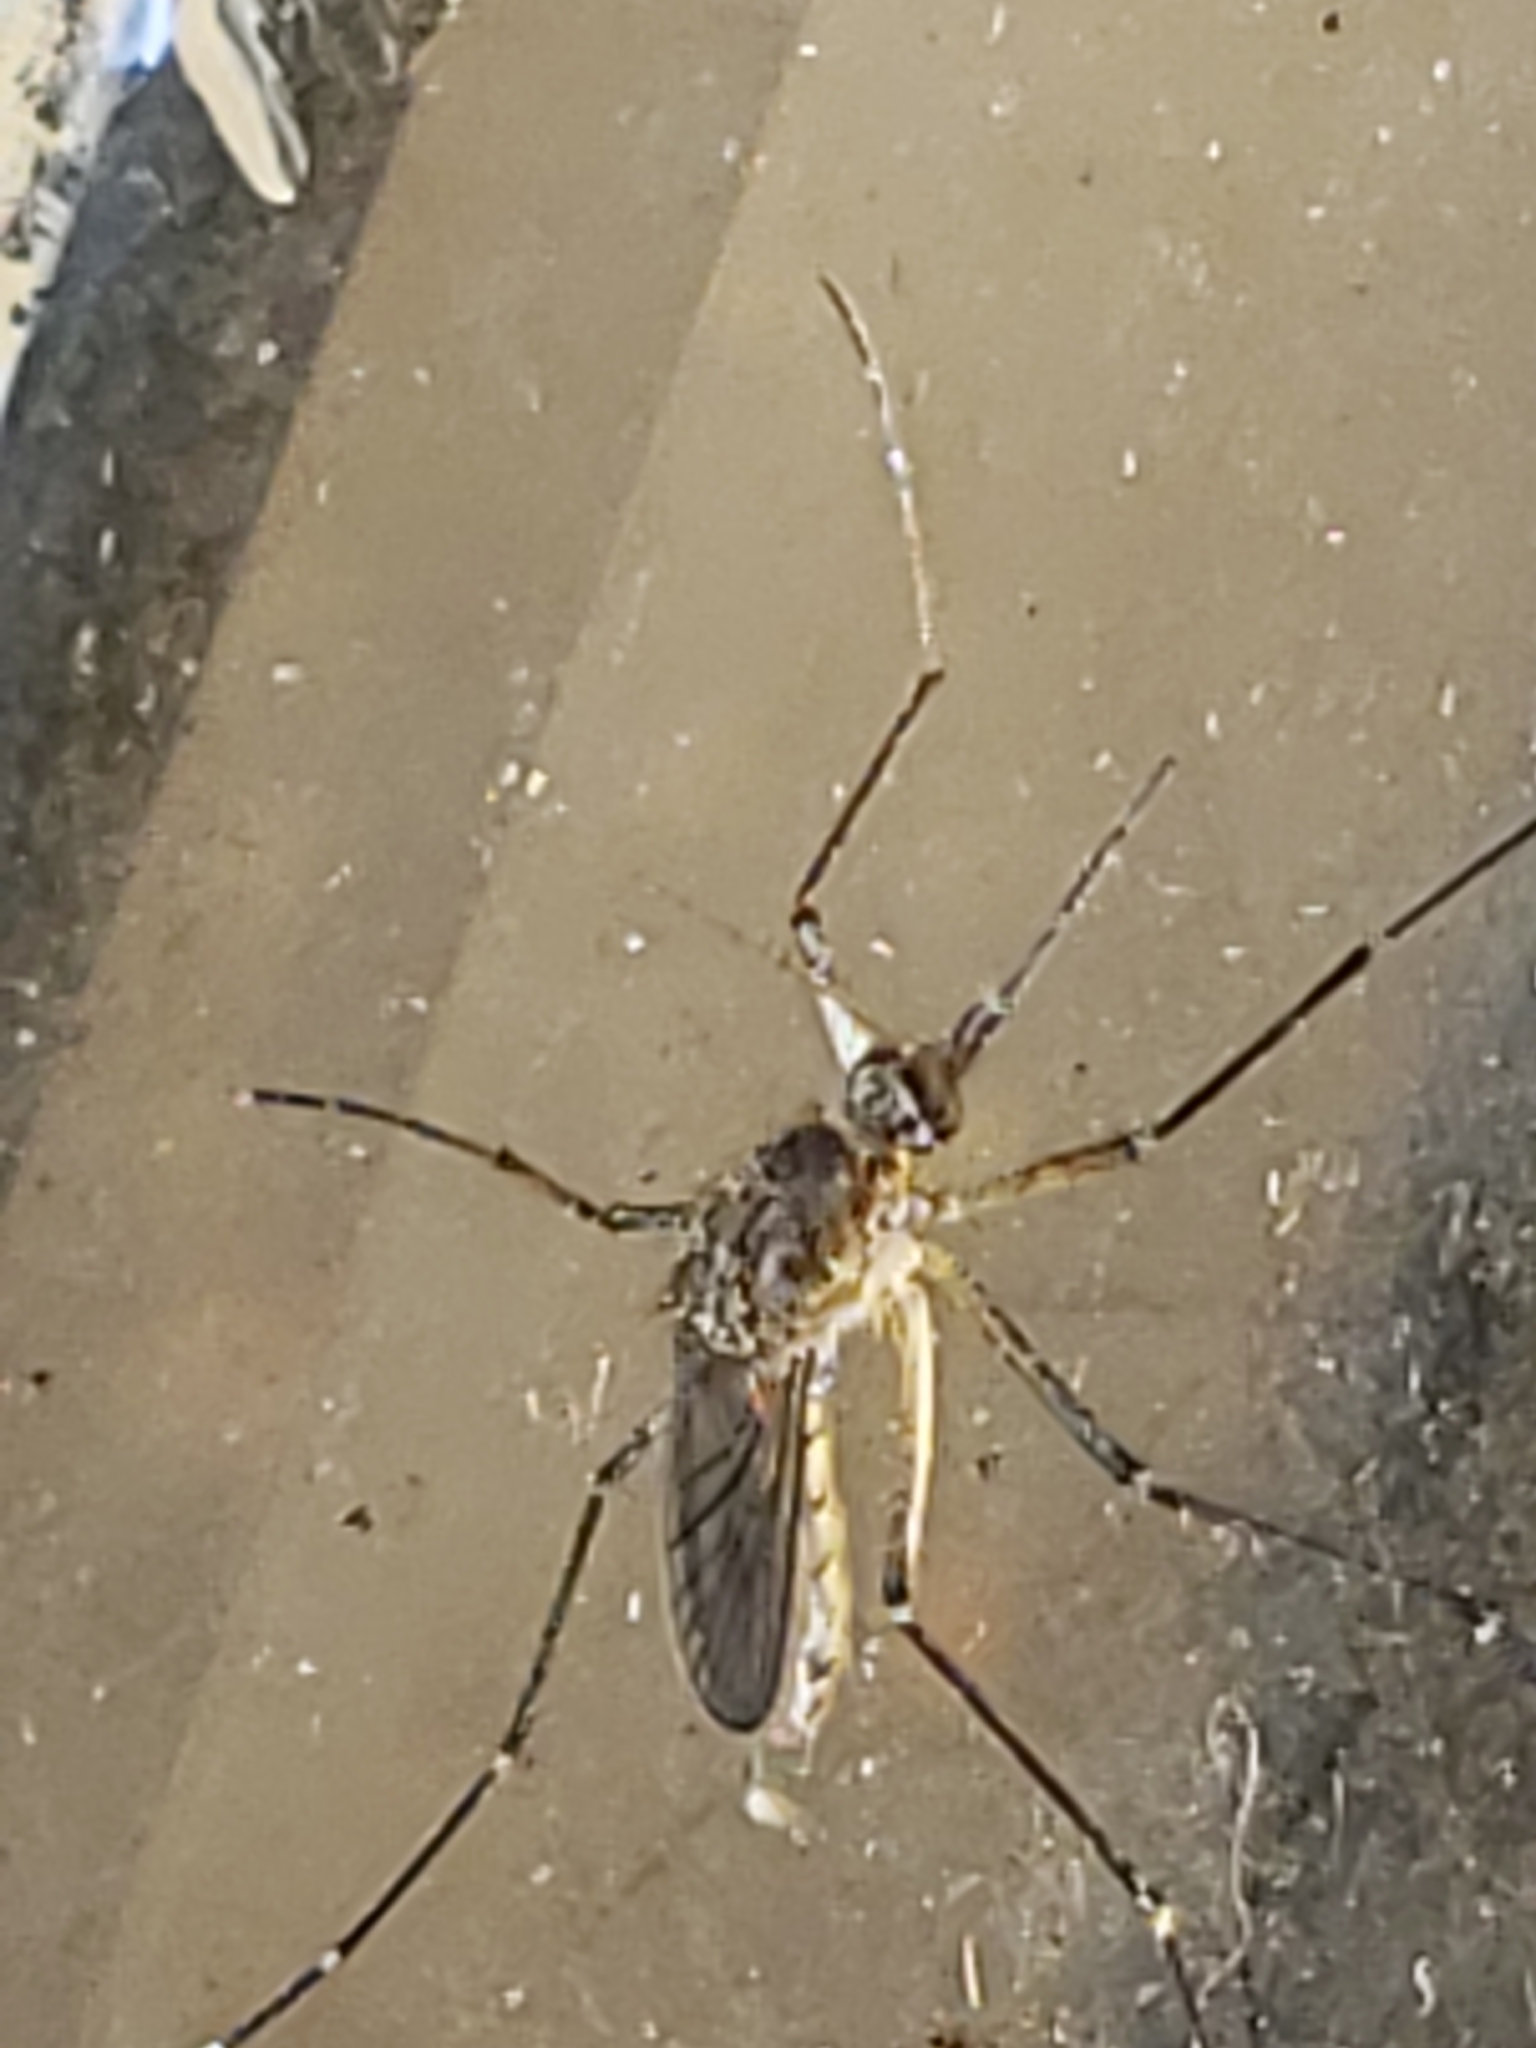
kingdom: Animalia
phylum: Arthropoda
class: Insecta
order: Diptera
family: Culicidae
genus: Aedes
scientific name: Aedes vexans
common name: Inland floodwater mosquito
